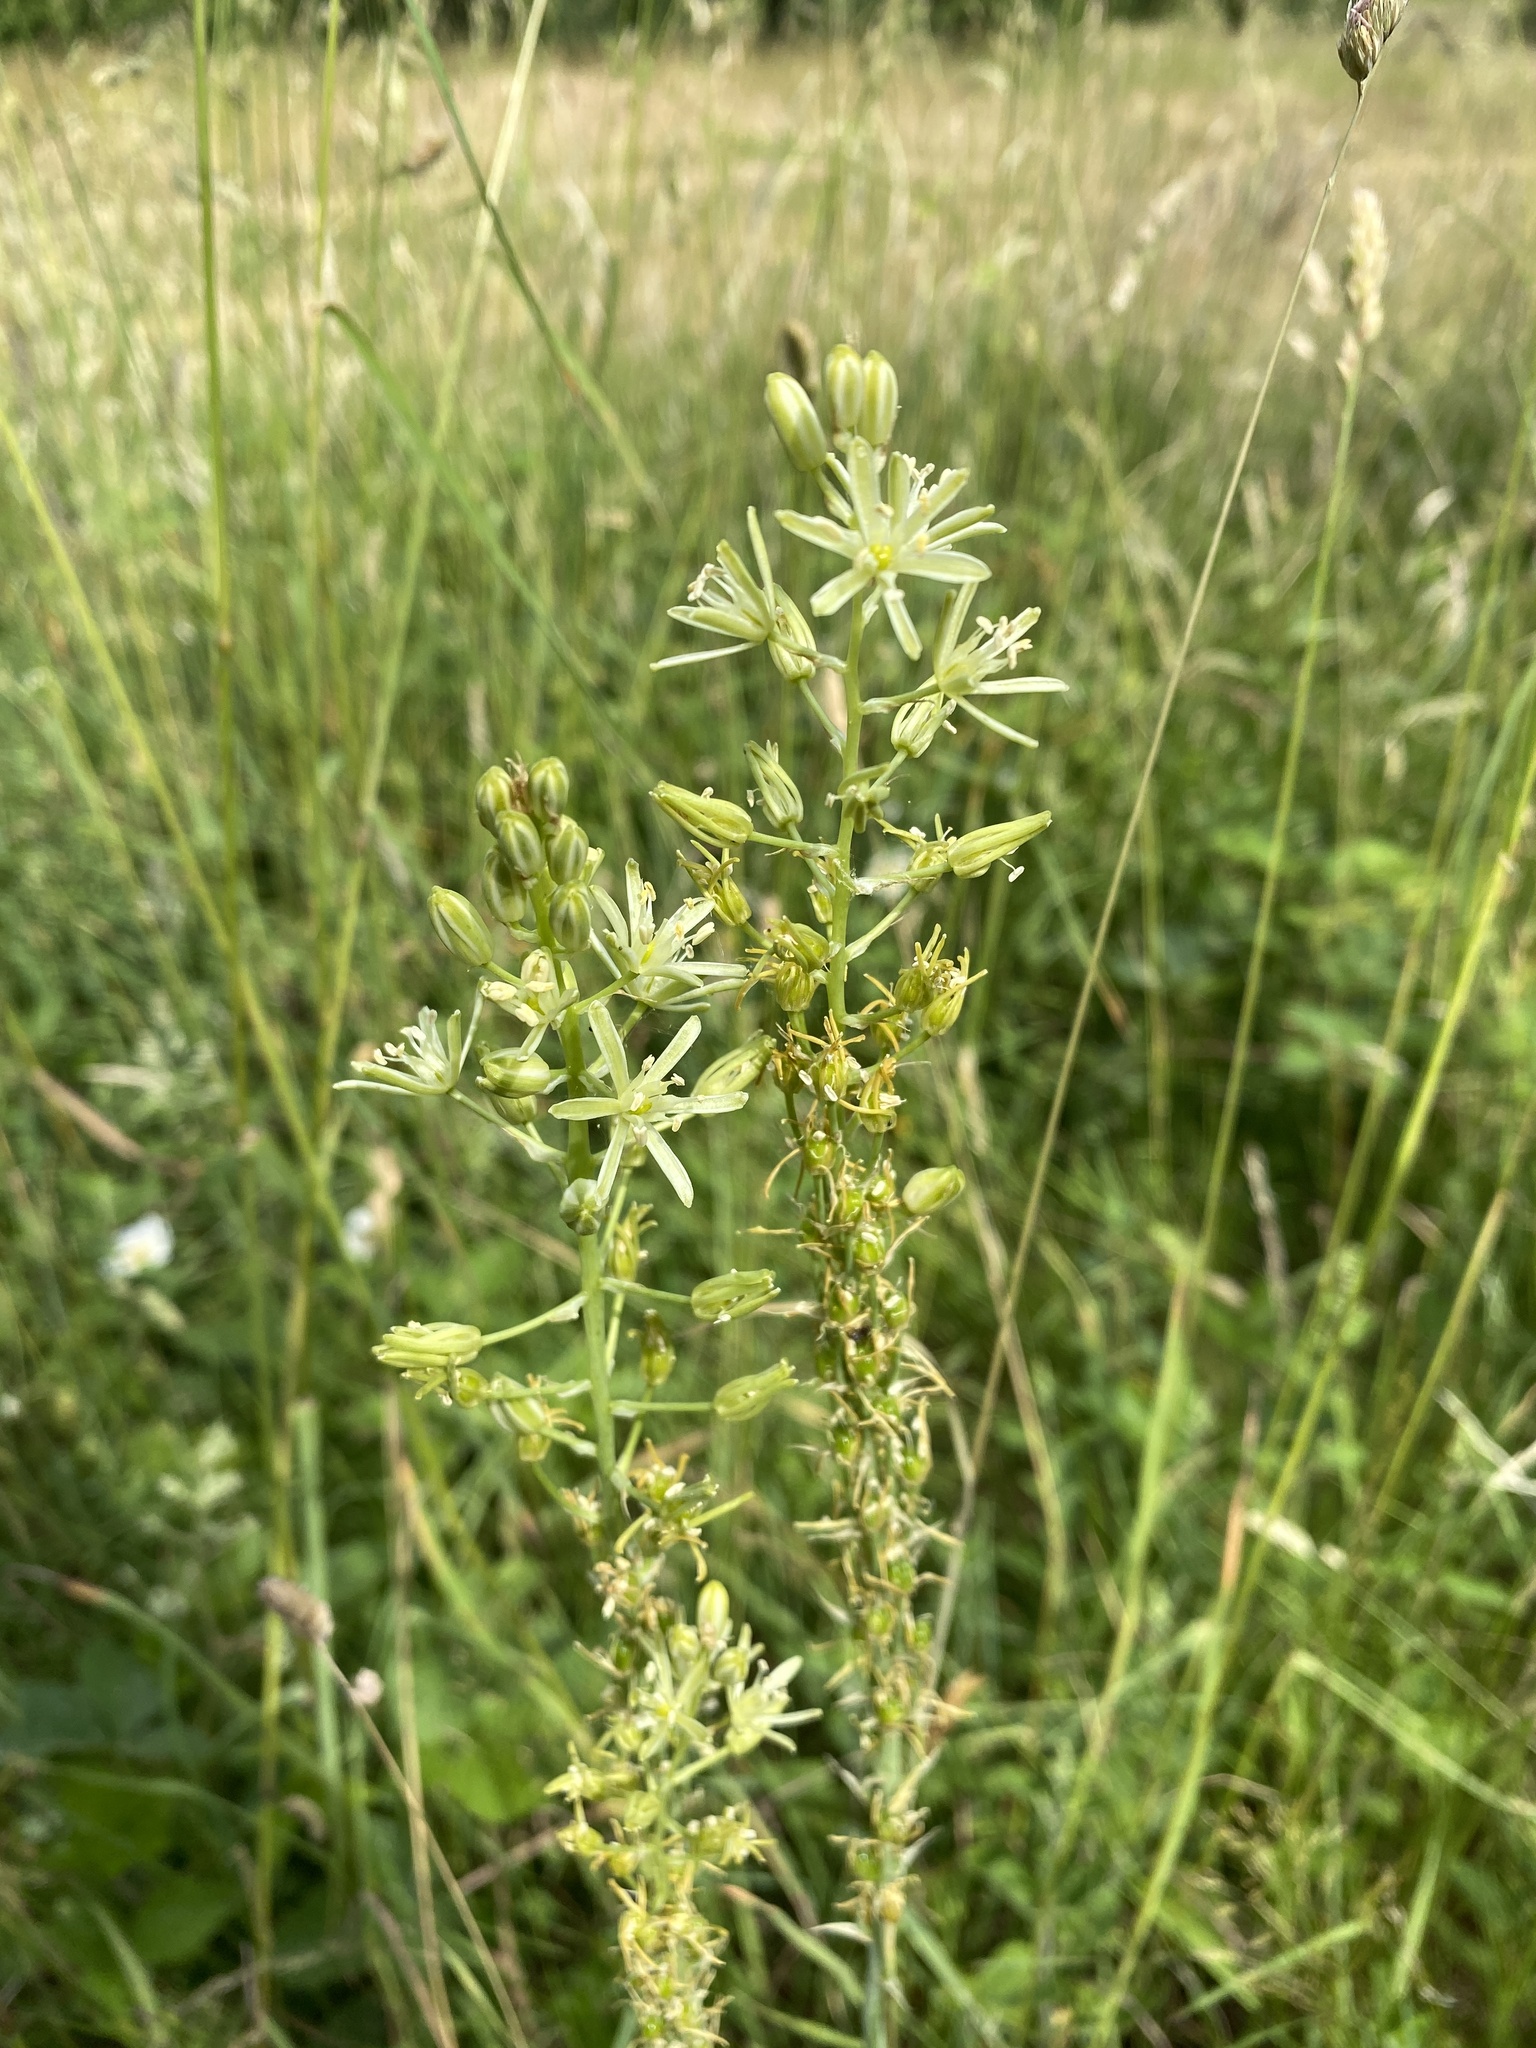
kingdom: Plantae
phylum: Tracheophyta
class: Liliopsida
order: Asparagales
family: Asparagaceae
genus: Ornithogalum
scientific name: Ornithogalum pyrenaicum
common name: Spiked star-of-bethlehem
